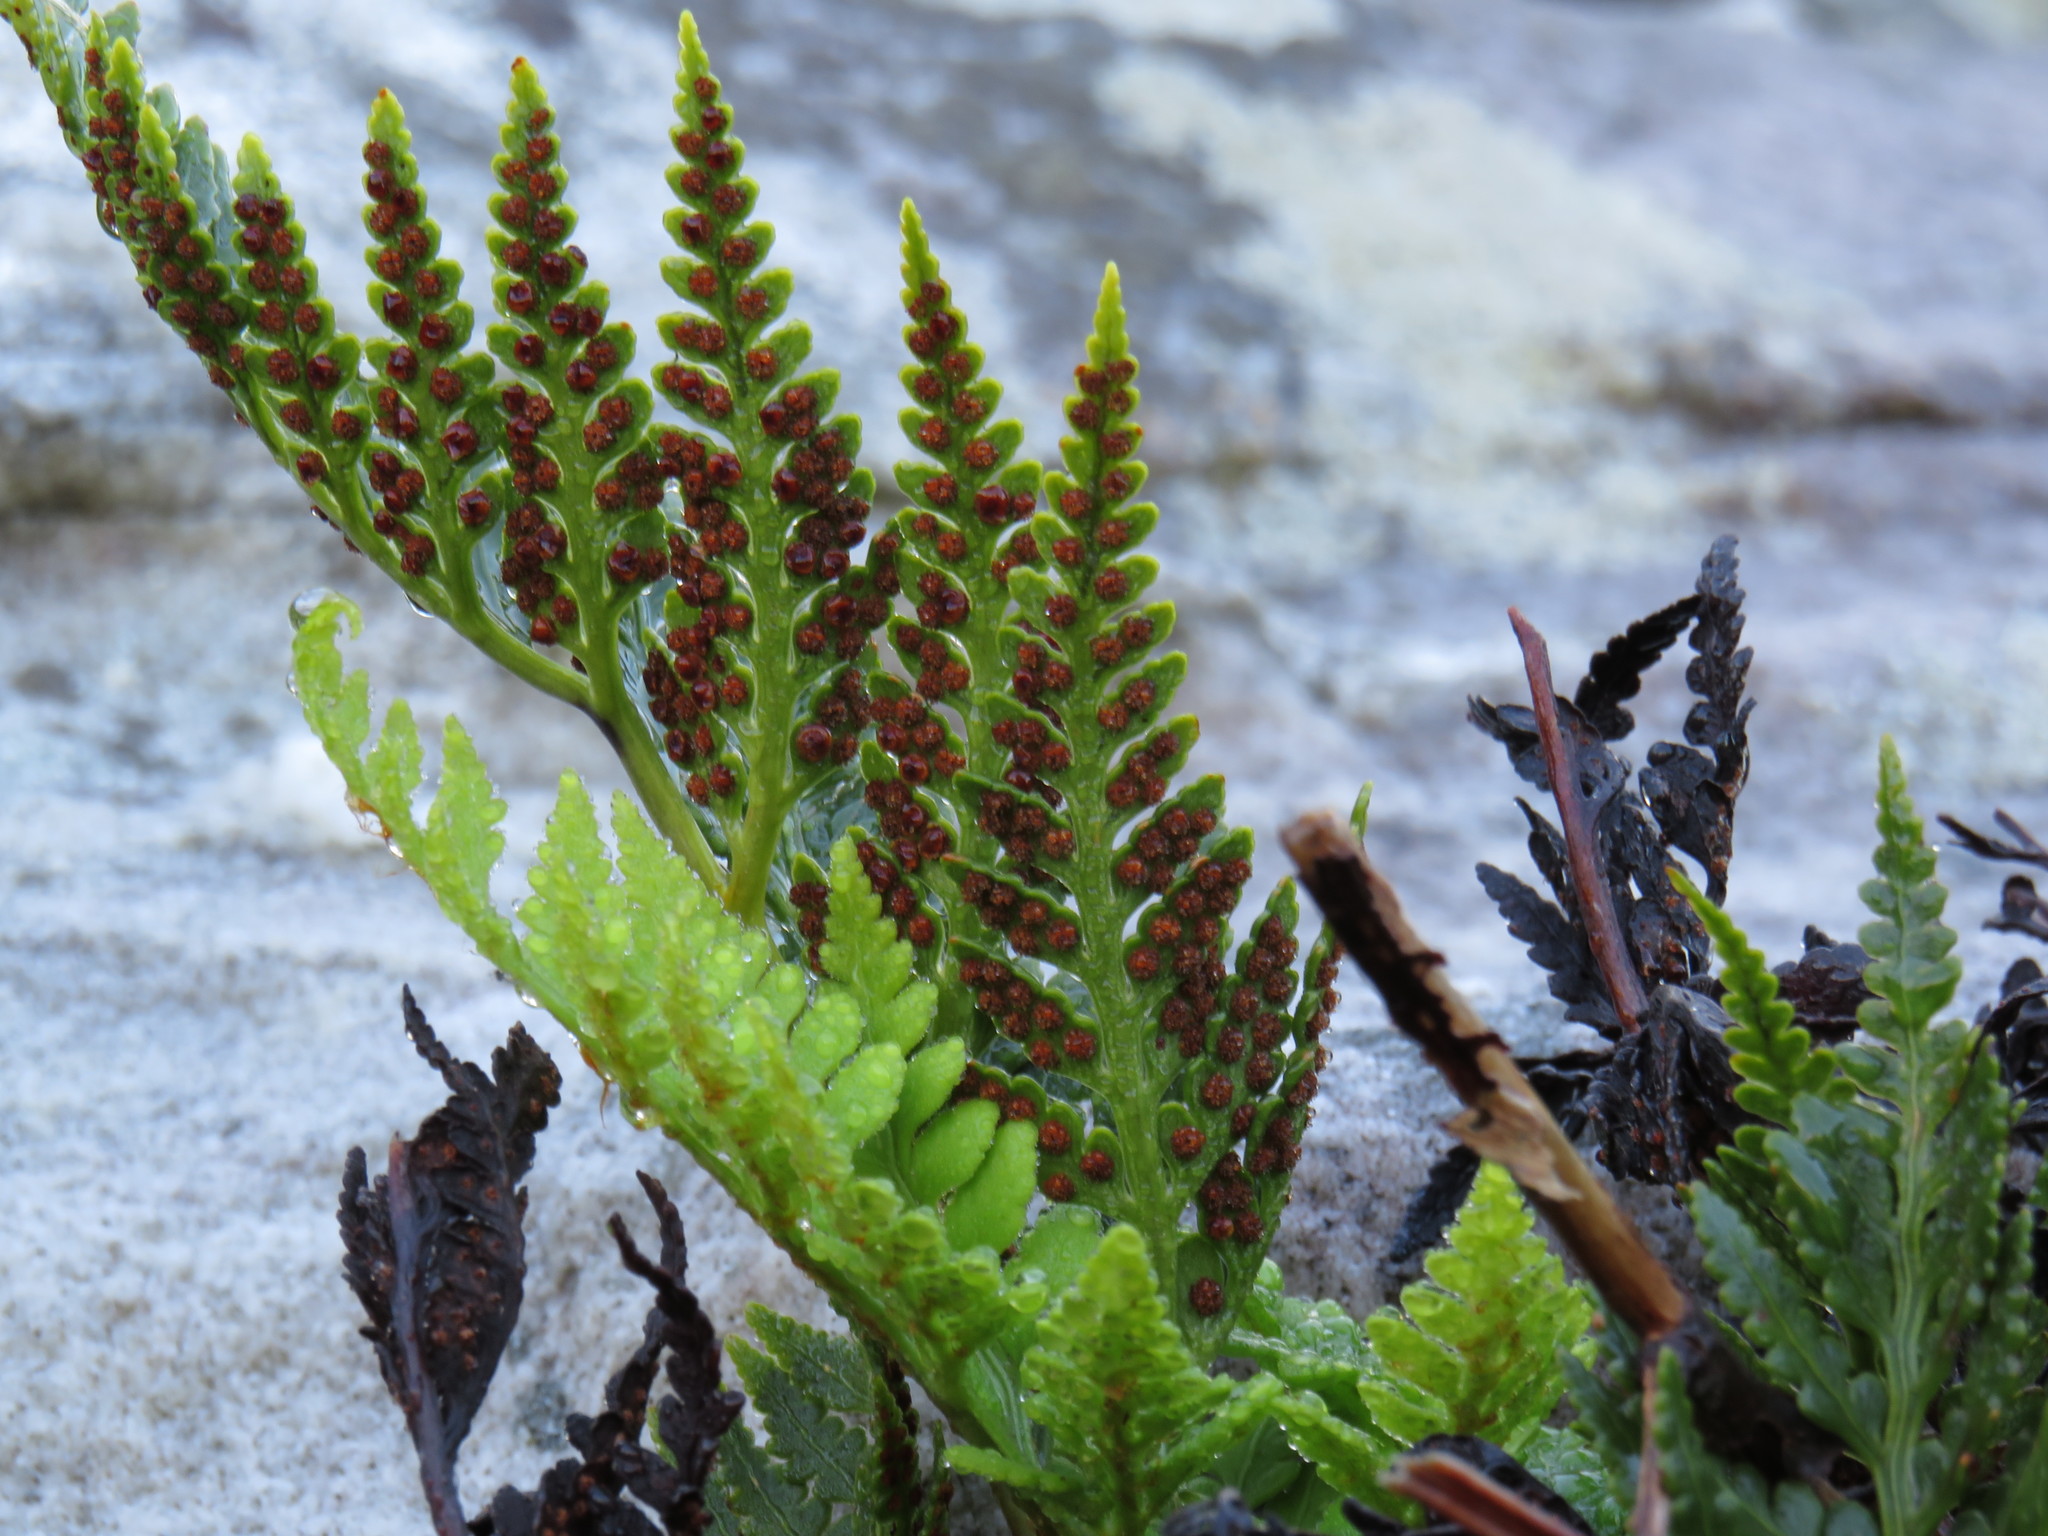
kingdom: Plantae
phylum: Tracheophyta
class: Polypodiopsida
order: Polypodiales
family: Dryopteridaceae
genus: Rumohra
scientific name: Rumohra adiantiformis
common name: Leather fern
